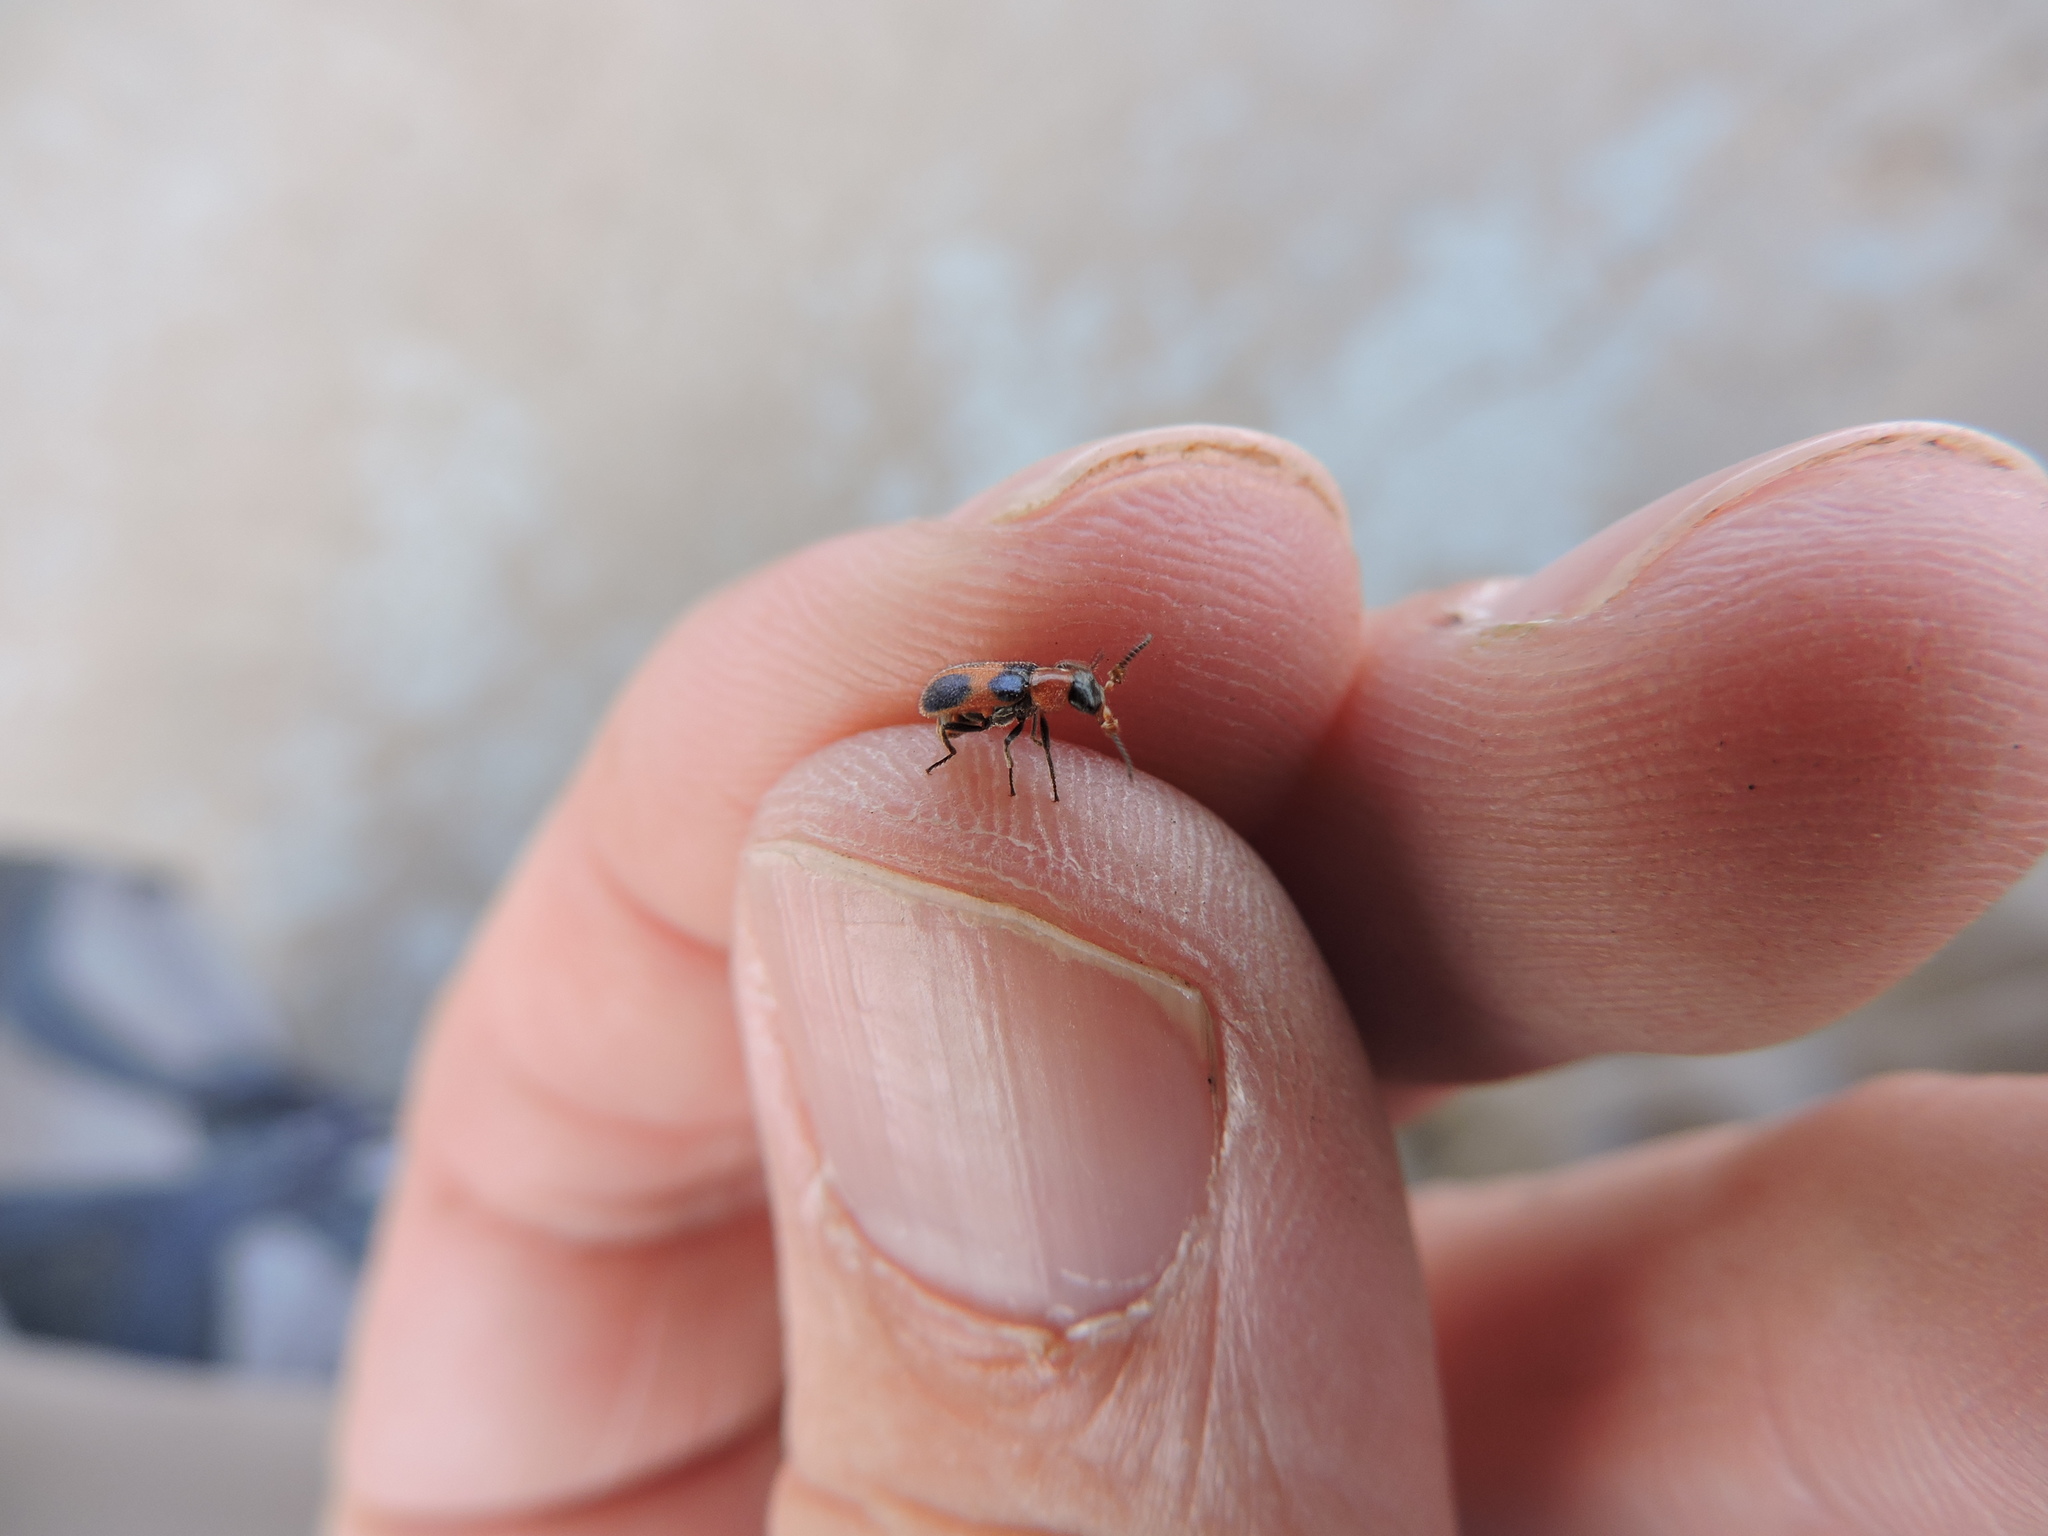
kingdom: Animalia
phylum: Arthropoda
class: Insecta
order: Coleoptera
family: Melyridae
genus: Collops
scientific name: Collops quadrimaculatus
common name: Four-spotted collops
